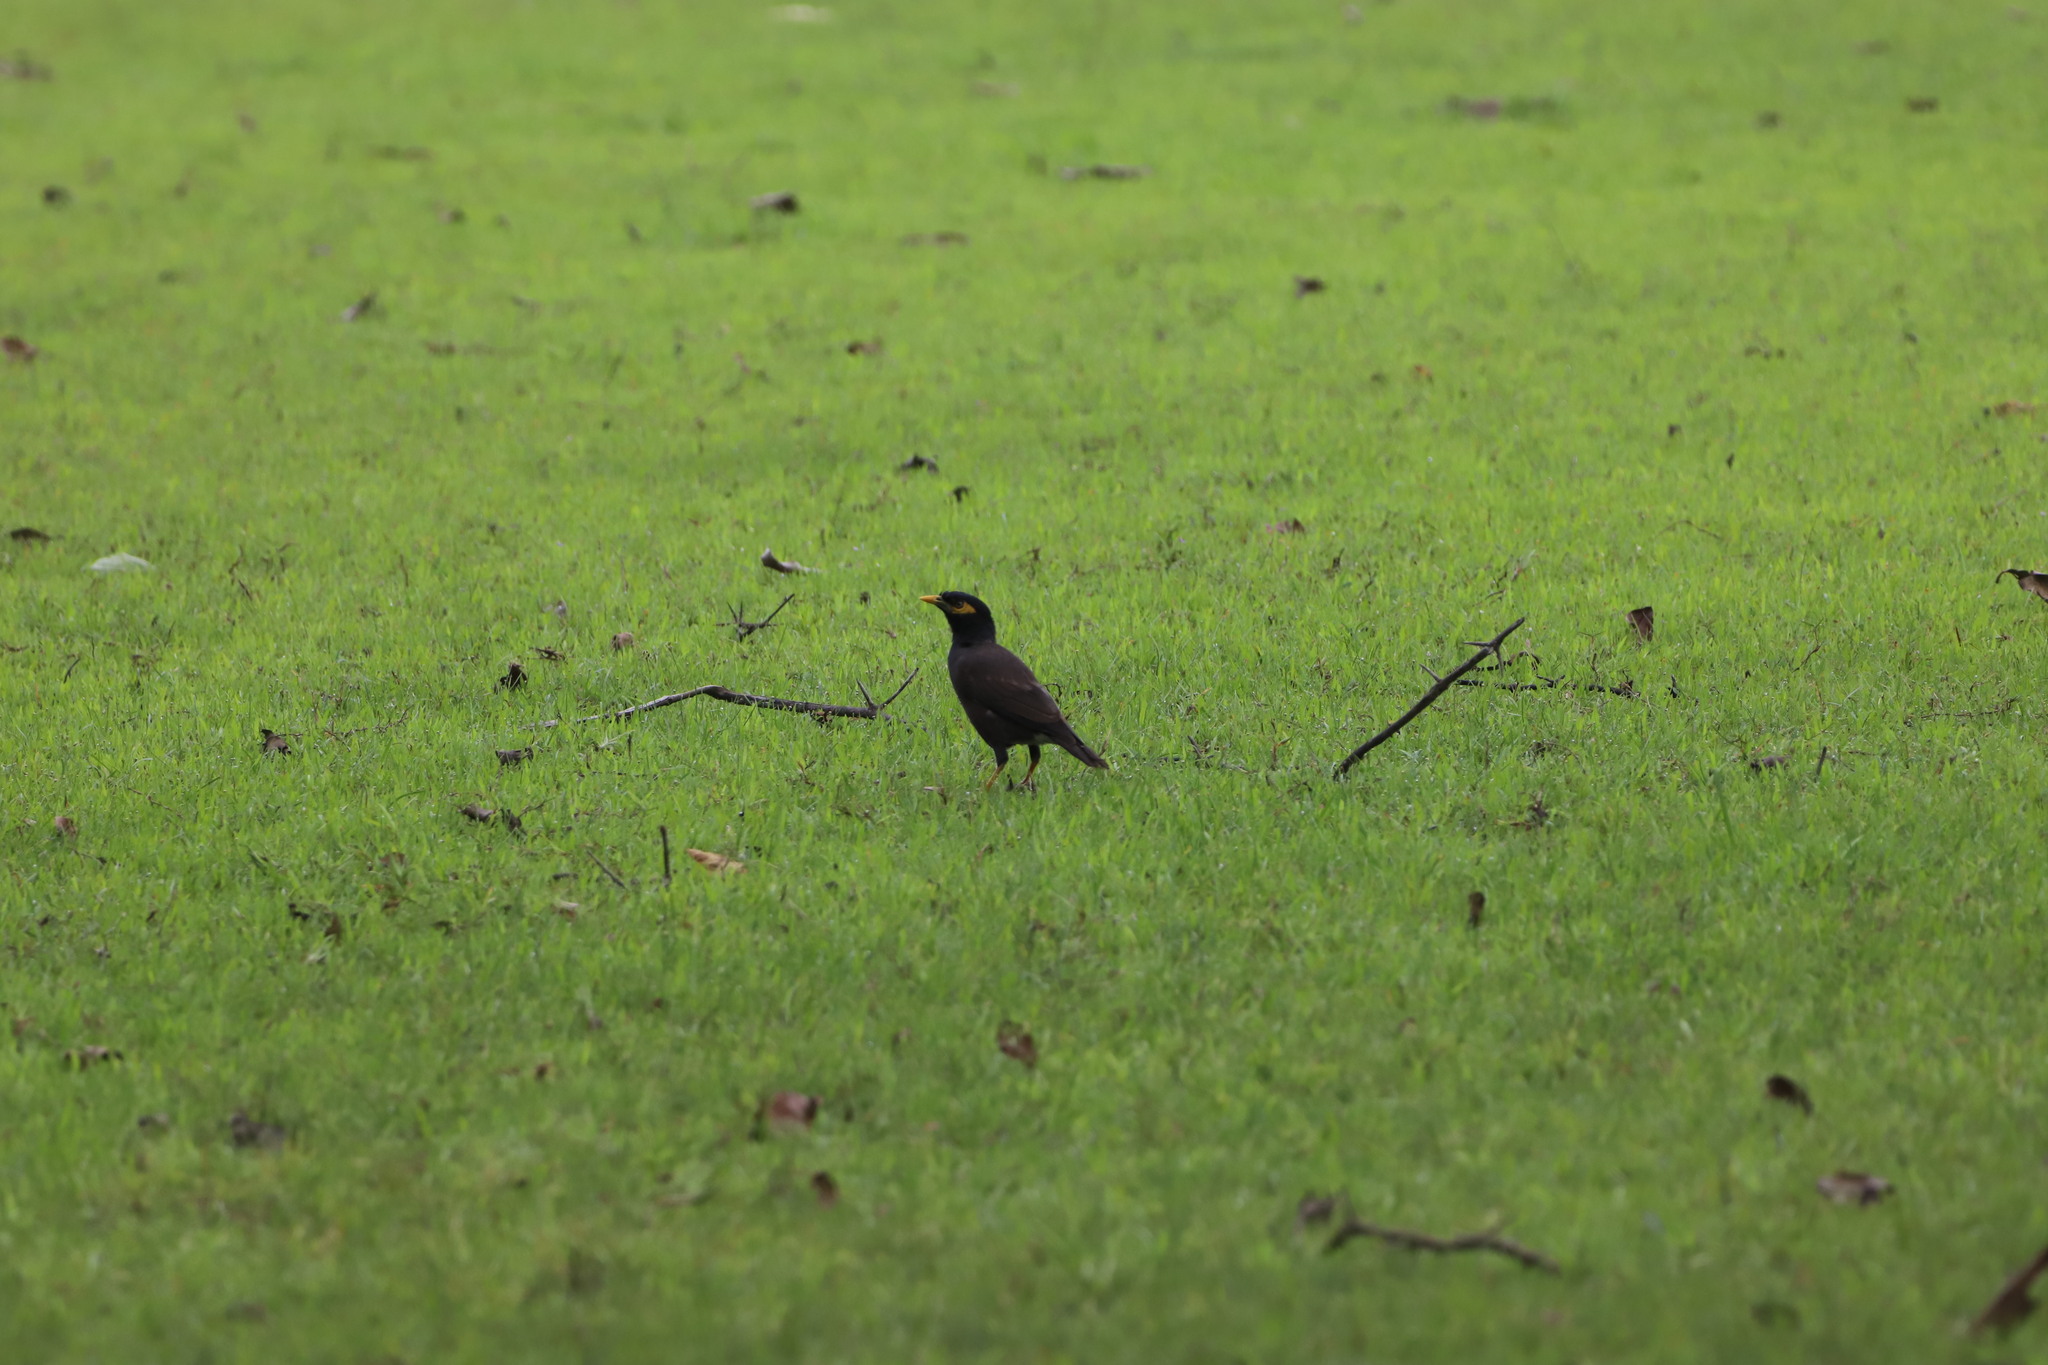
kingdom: Animalia
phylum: Chordata
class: Aves
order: Passeriformes
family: Sturnidae
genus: Acridotheres
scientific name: Acridotheres tristis
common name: Common myna
